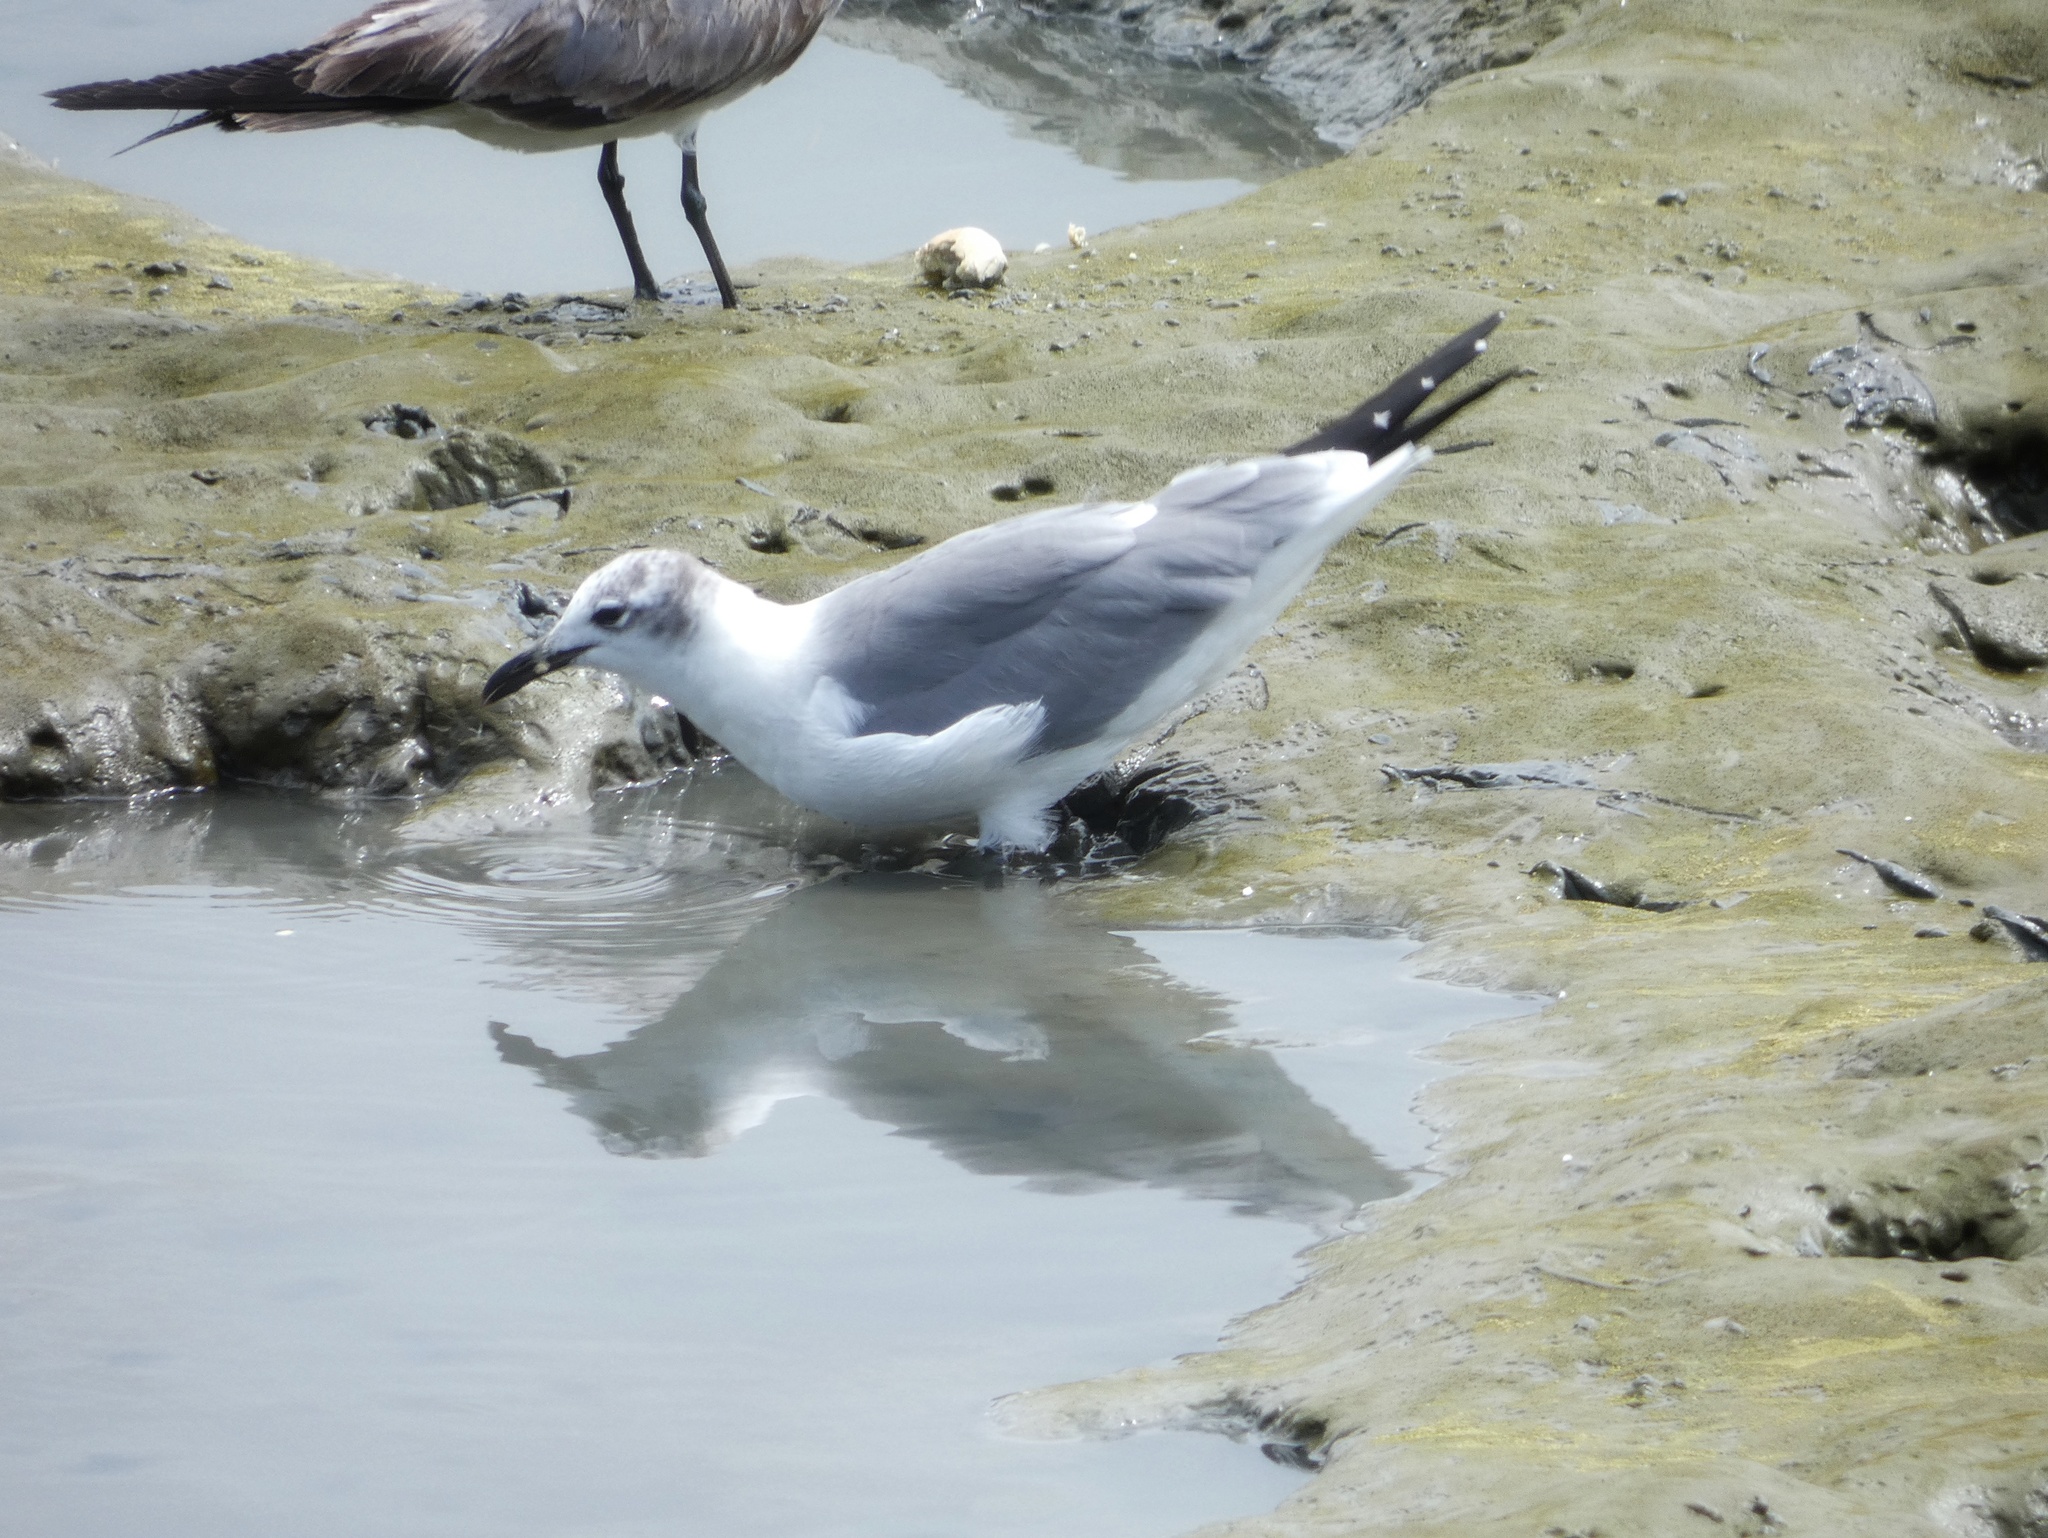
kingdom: Animalia
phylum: Chordata
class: Aves
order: Charadriiformes
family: Laridae
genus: Leucophaeus
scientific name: Leucophaeus atricilla
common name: Laughing gull
